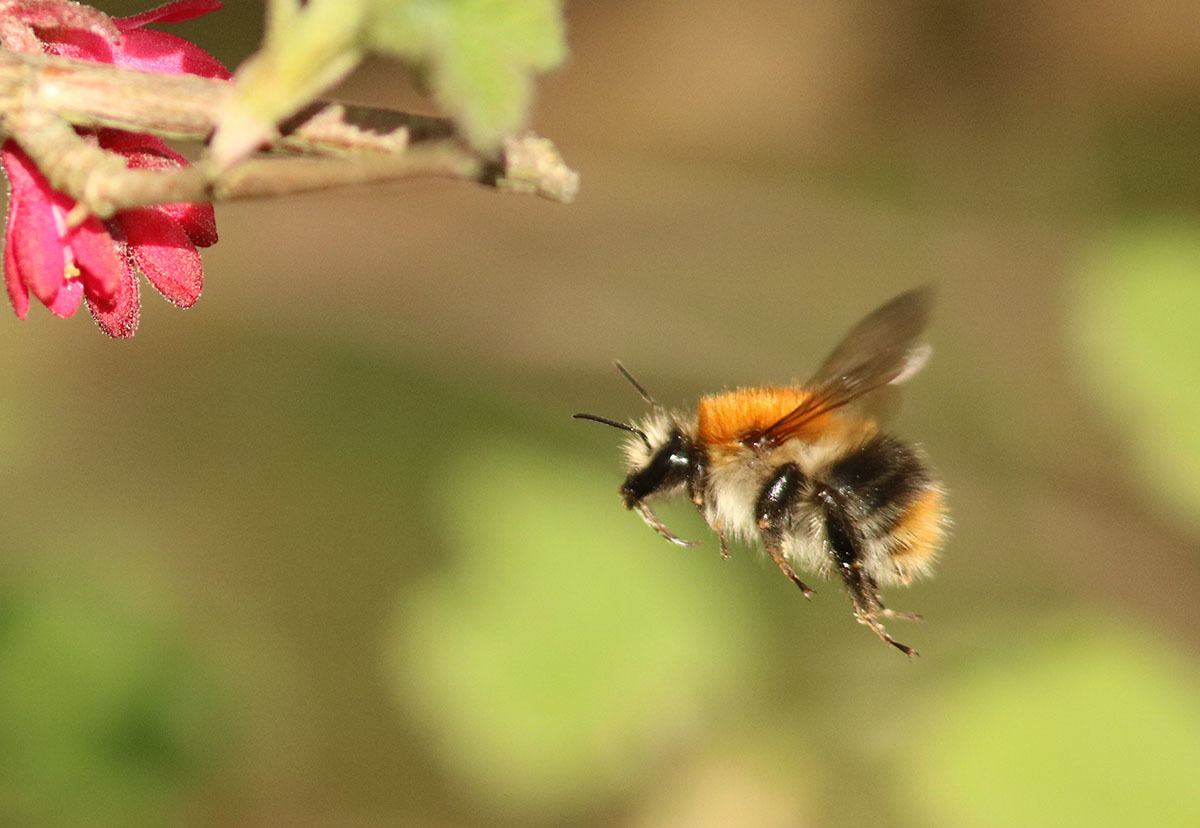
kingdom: Animalia
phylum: Arthropoda
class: Insecta
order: Hymenoptera
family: Apidae
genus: Bombus
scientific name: Bombus pascuorum
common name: Common carder bee
